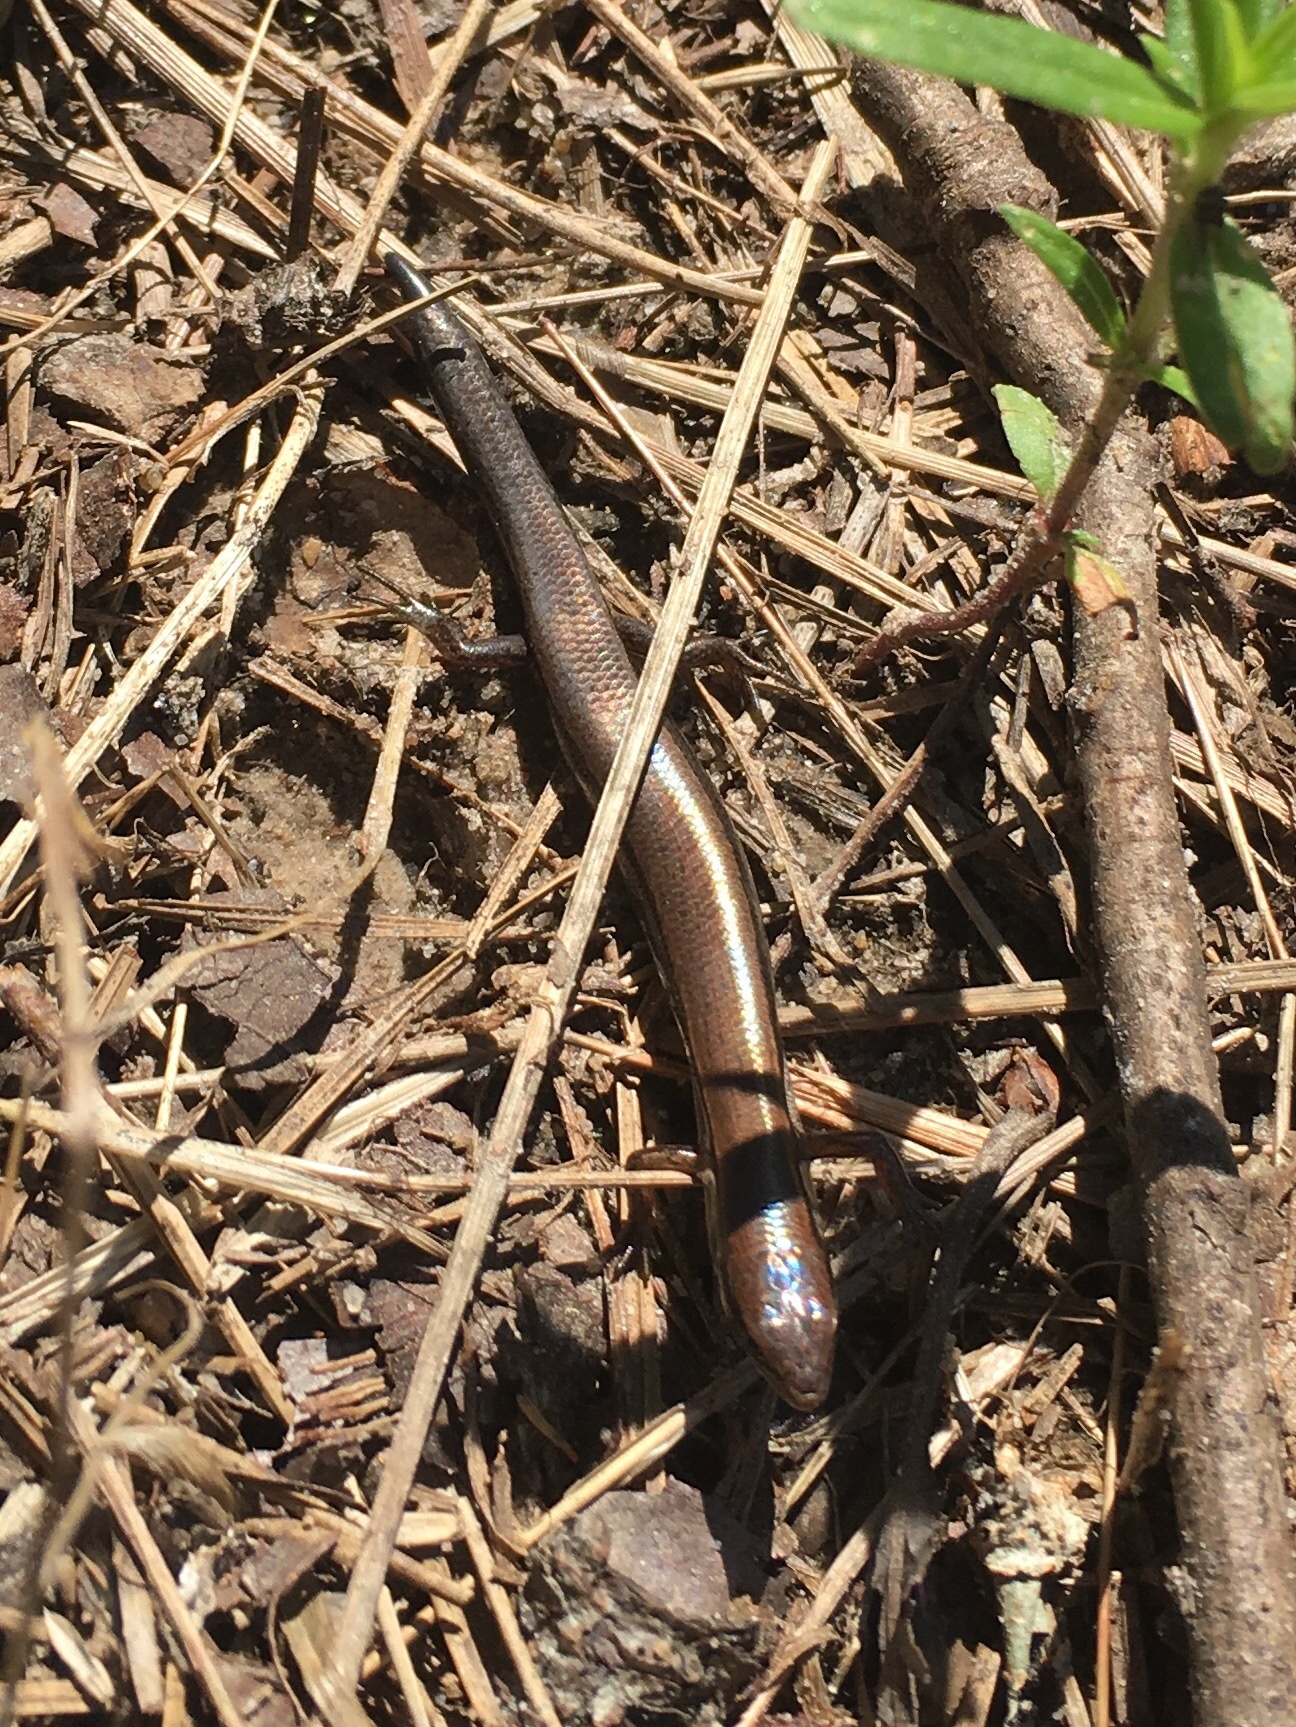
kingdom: Animalia
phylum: Chordata
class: Squamata
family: Scincidae
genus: Scincella
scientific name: Scincella lateralis
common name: Ground skink
